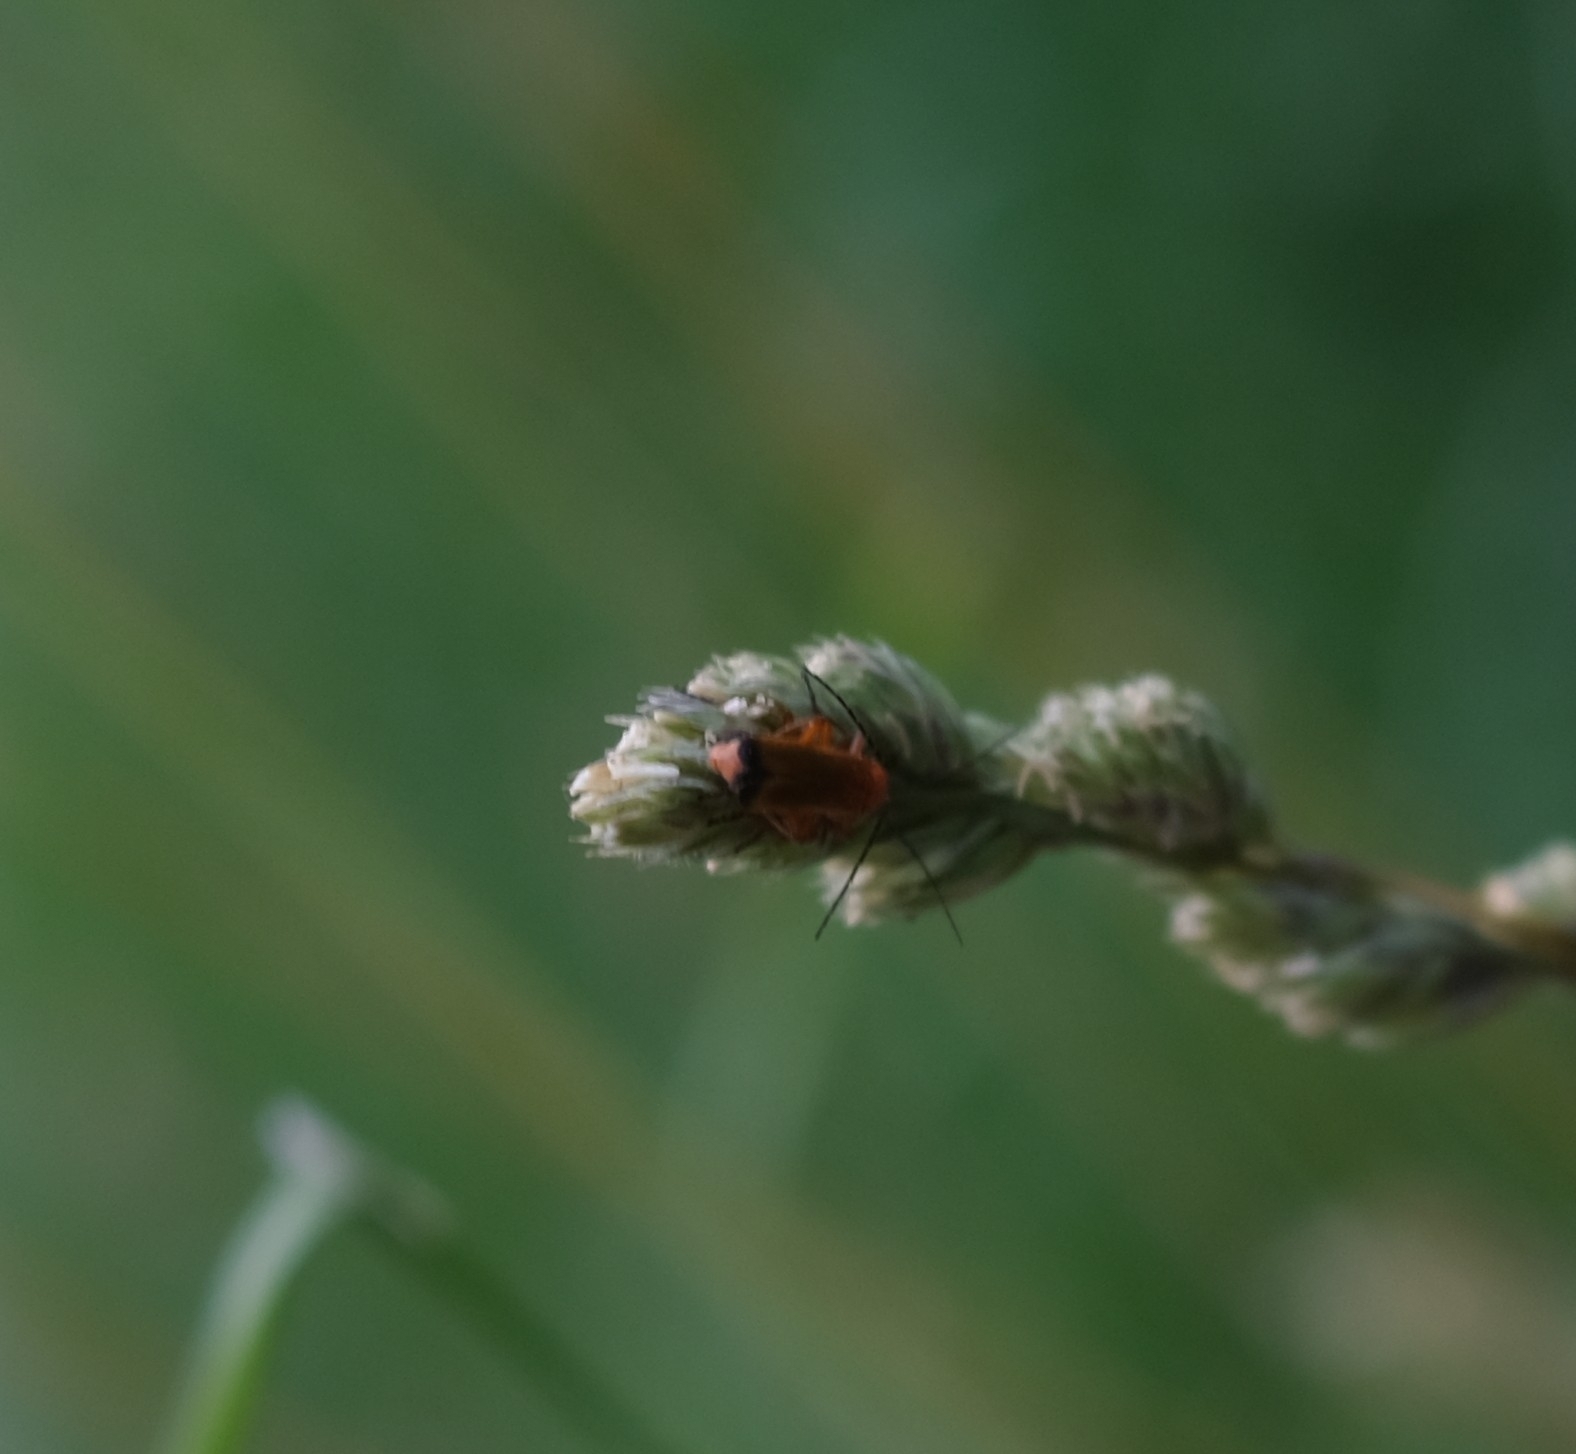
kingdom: Animalia
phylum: Arthropoda
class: Insecta
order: Coleoptera
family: Cantharidae
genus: Rhagonycha
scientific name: Rhagonycha fulva
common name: Common red soldier beetle
